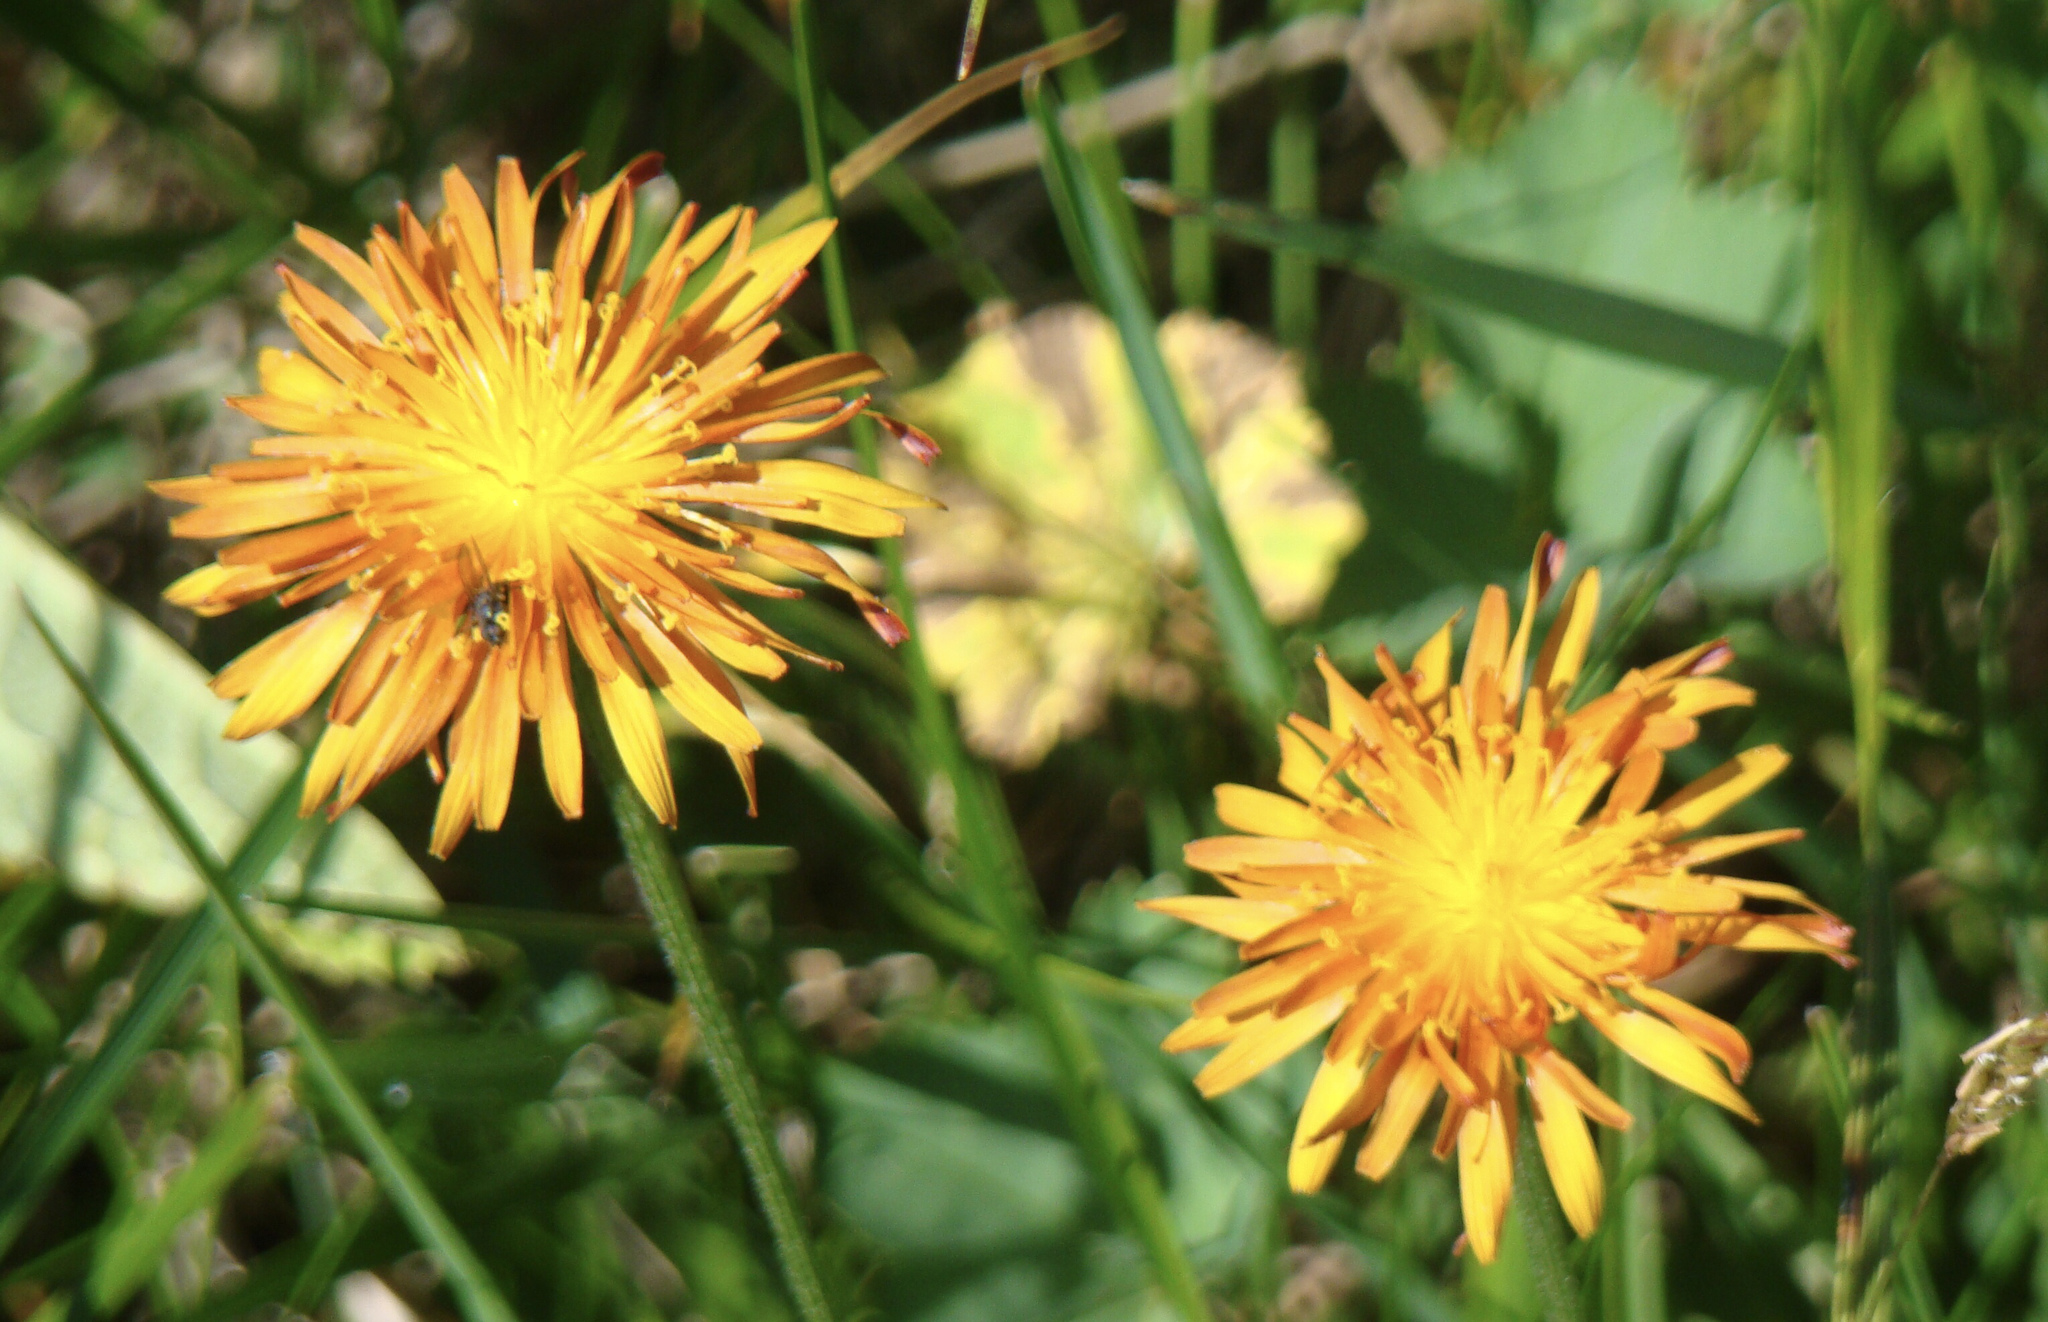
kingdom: Plantae
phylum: Tracheophyta
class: Magnoliopsida
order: Asterales
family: Asteraceae
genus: Crepis
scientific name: Crepis aurea
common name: Golden hawk's-beard
